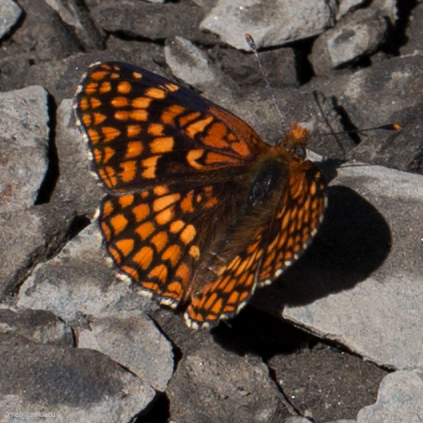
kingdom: Animalia
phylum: Arthropoda
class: Insecta
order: Lepidoptera
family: Nymphalidae
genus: Chlosyne
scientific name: Chlosyne palla
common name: Northern checkerspot
